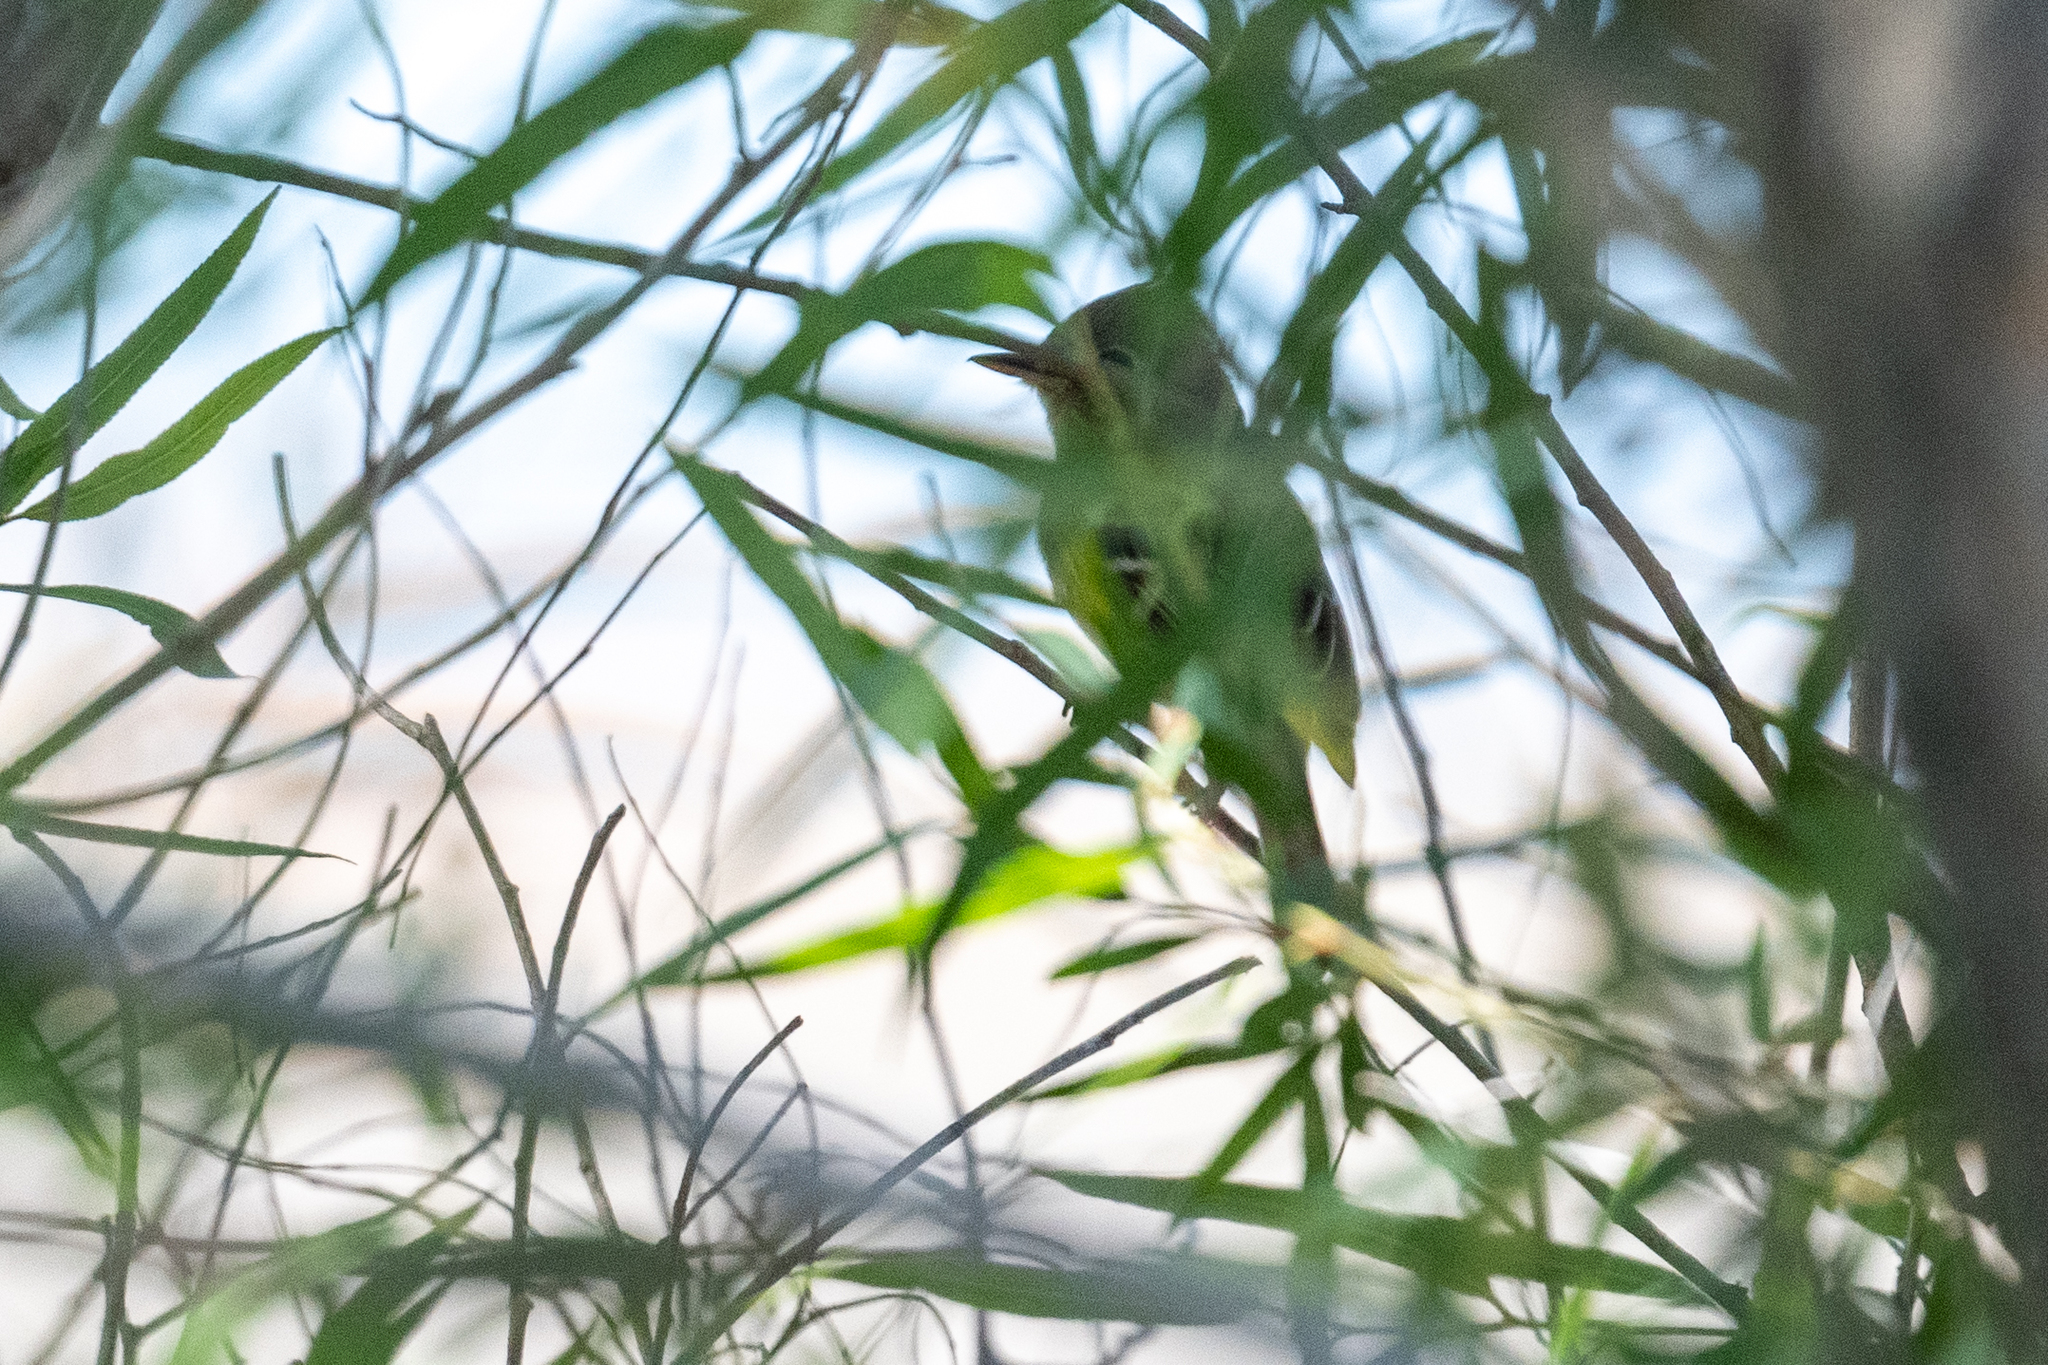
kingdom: Animalia
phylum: Chordata
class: Aves
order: Passeriformes
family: Tyrannidae
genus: Empidonax
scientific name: Empidonax difficilis
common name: Pacific-slope flycatcher
